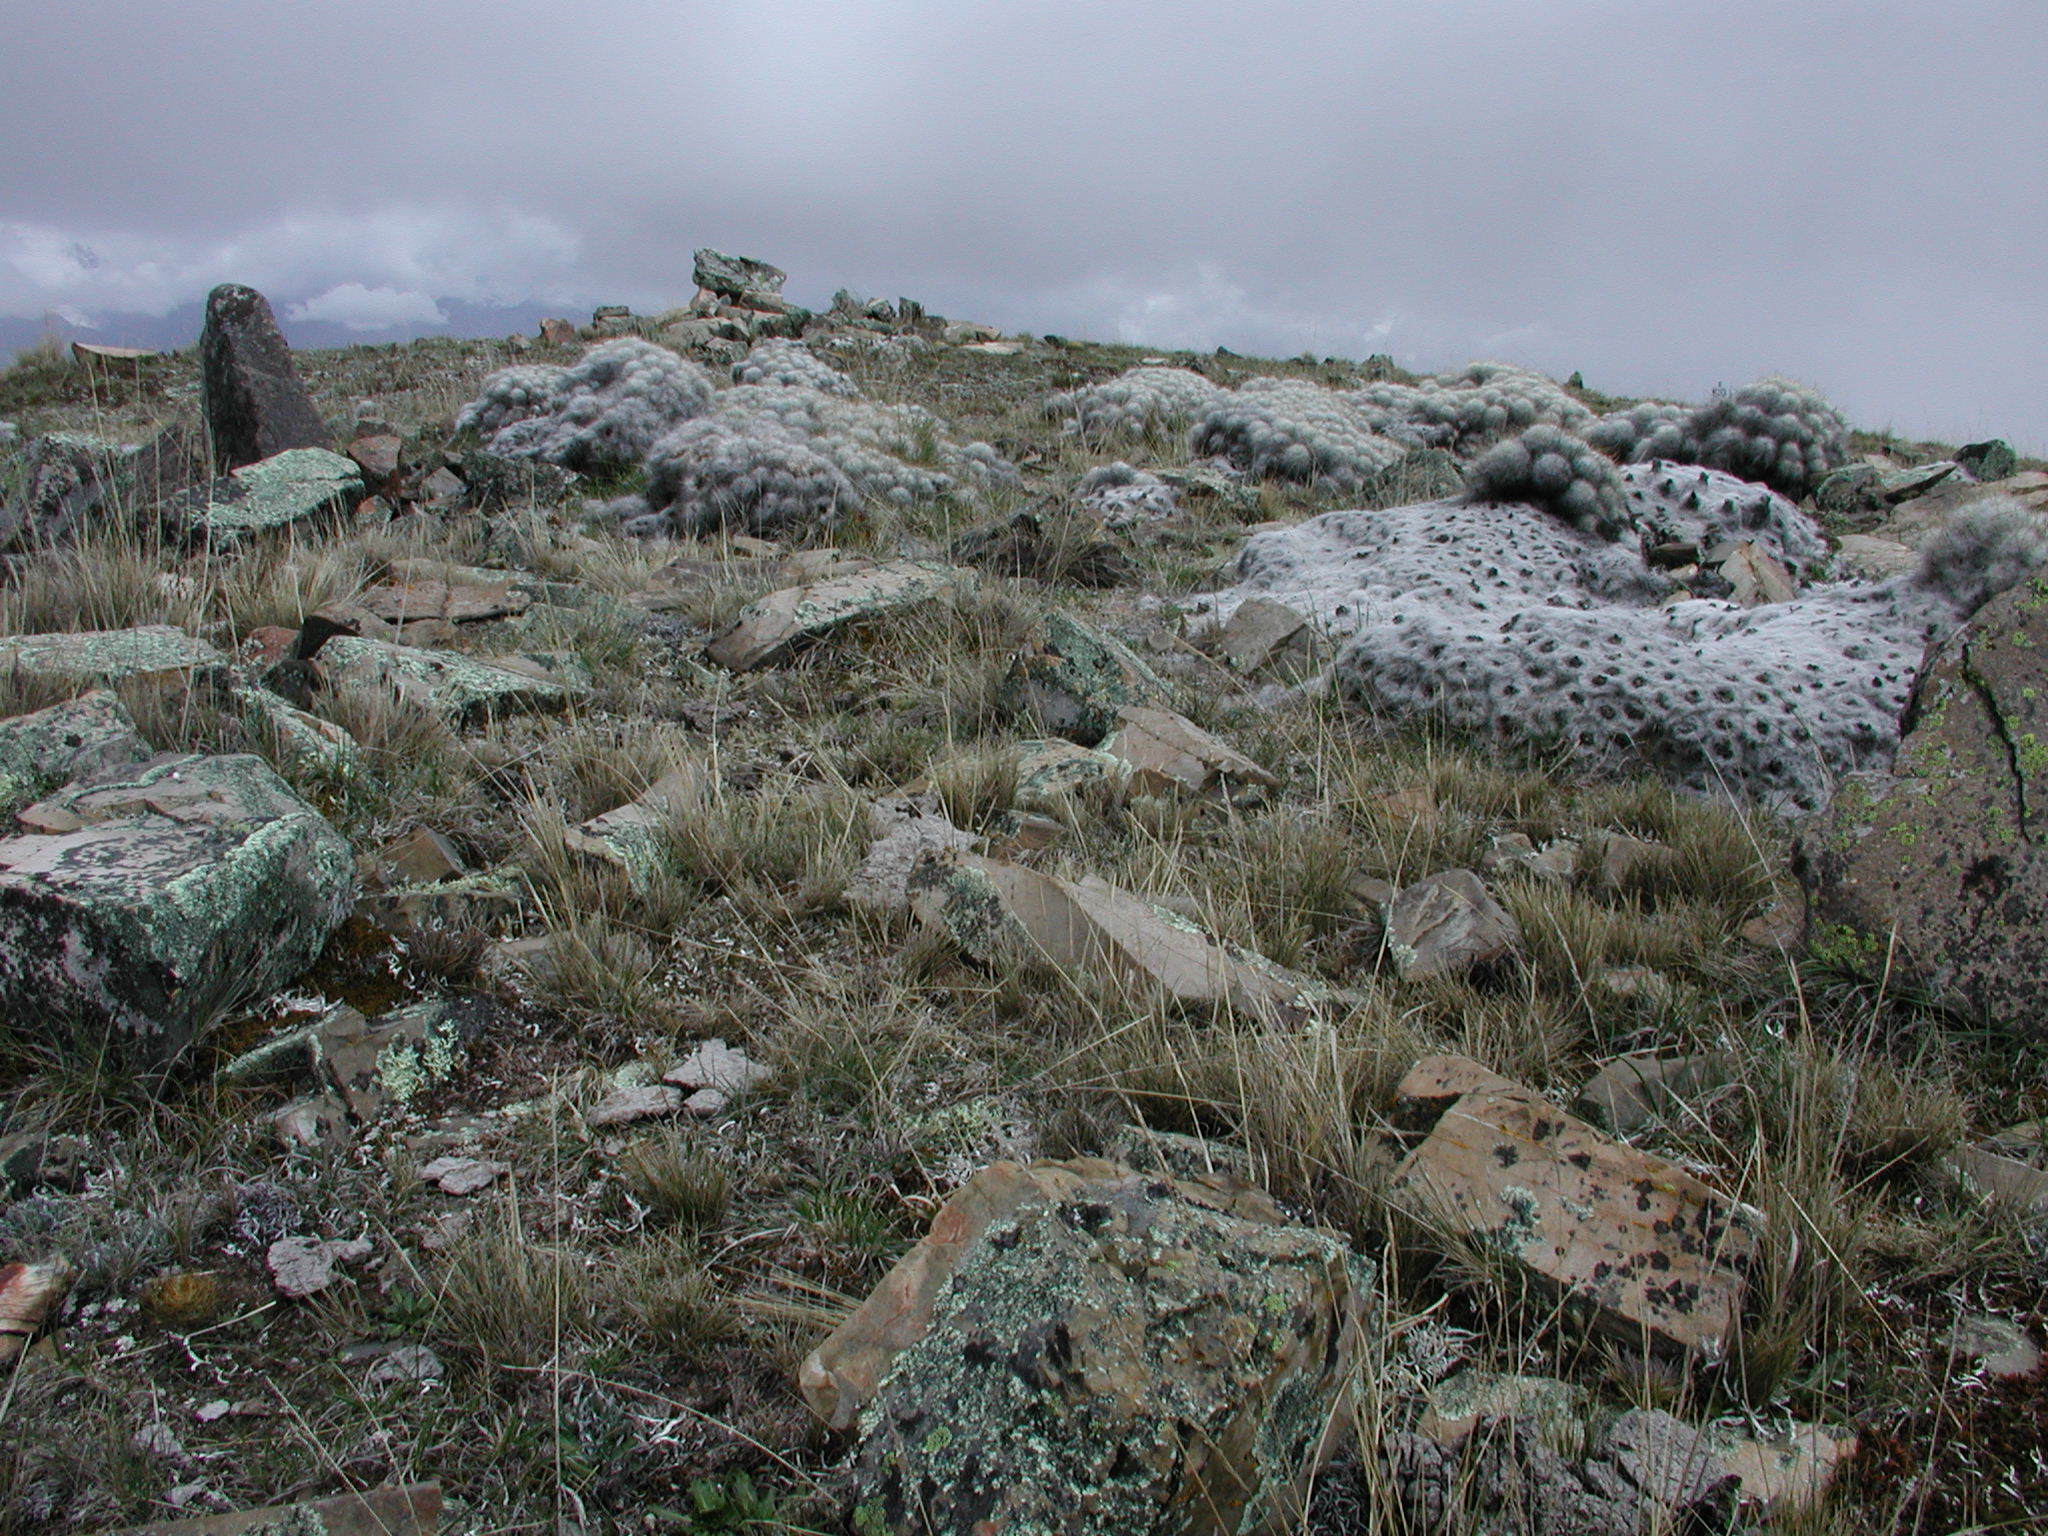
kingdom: Plantae
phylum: Tracheophyta
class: Magnoliopsida
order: Caryophyllales
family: Cactaceae
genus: Austrocylindropuntia
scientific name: Austrocylindropuntia floccosa
